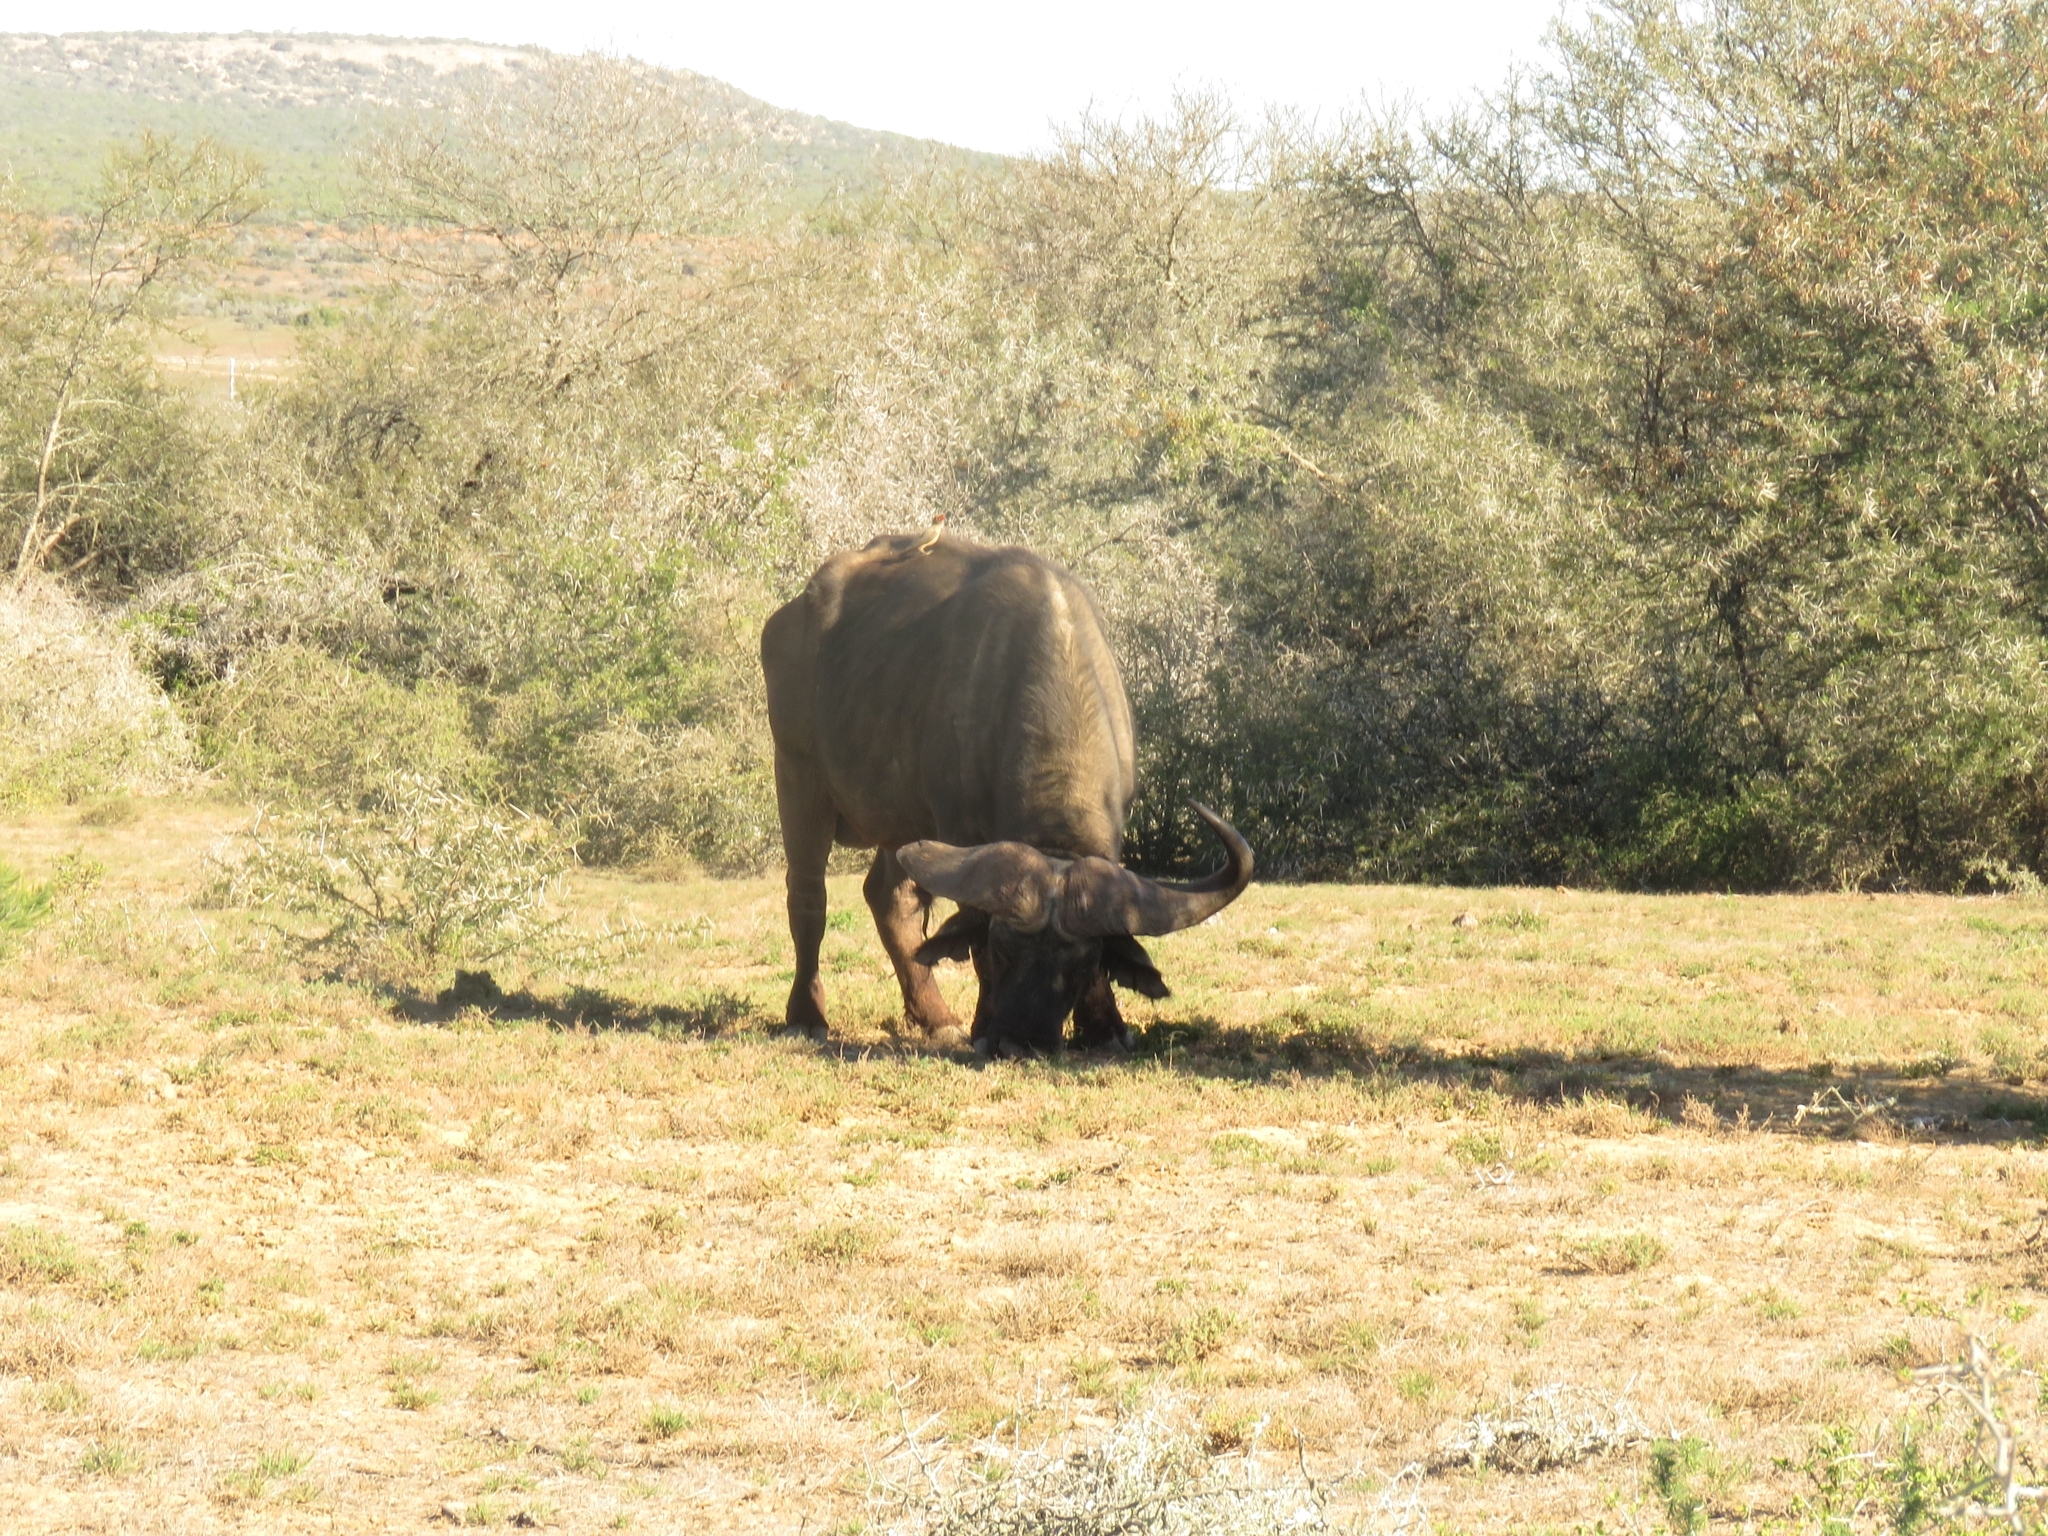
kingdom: Animalia
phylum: Chordata
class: Aves
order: Passeriformes
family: Buphagidae
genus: Buphagus
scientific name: Buphagus erythrorhynchus
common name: Red-billed oxpecker
